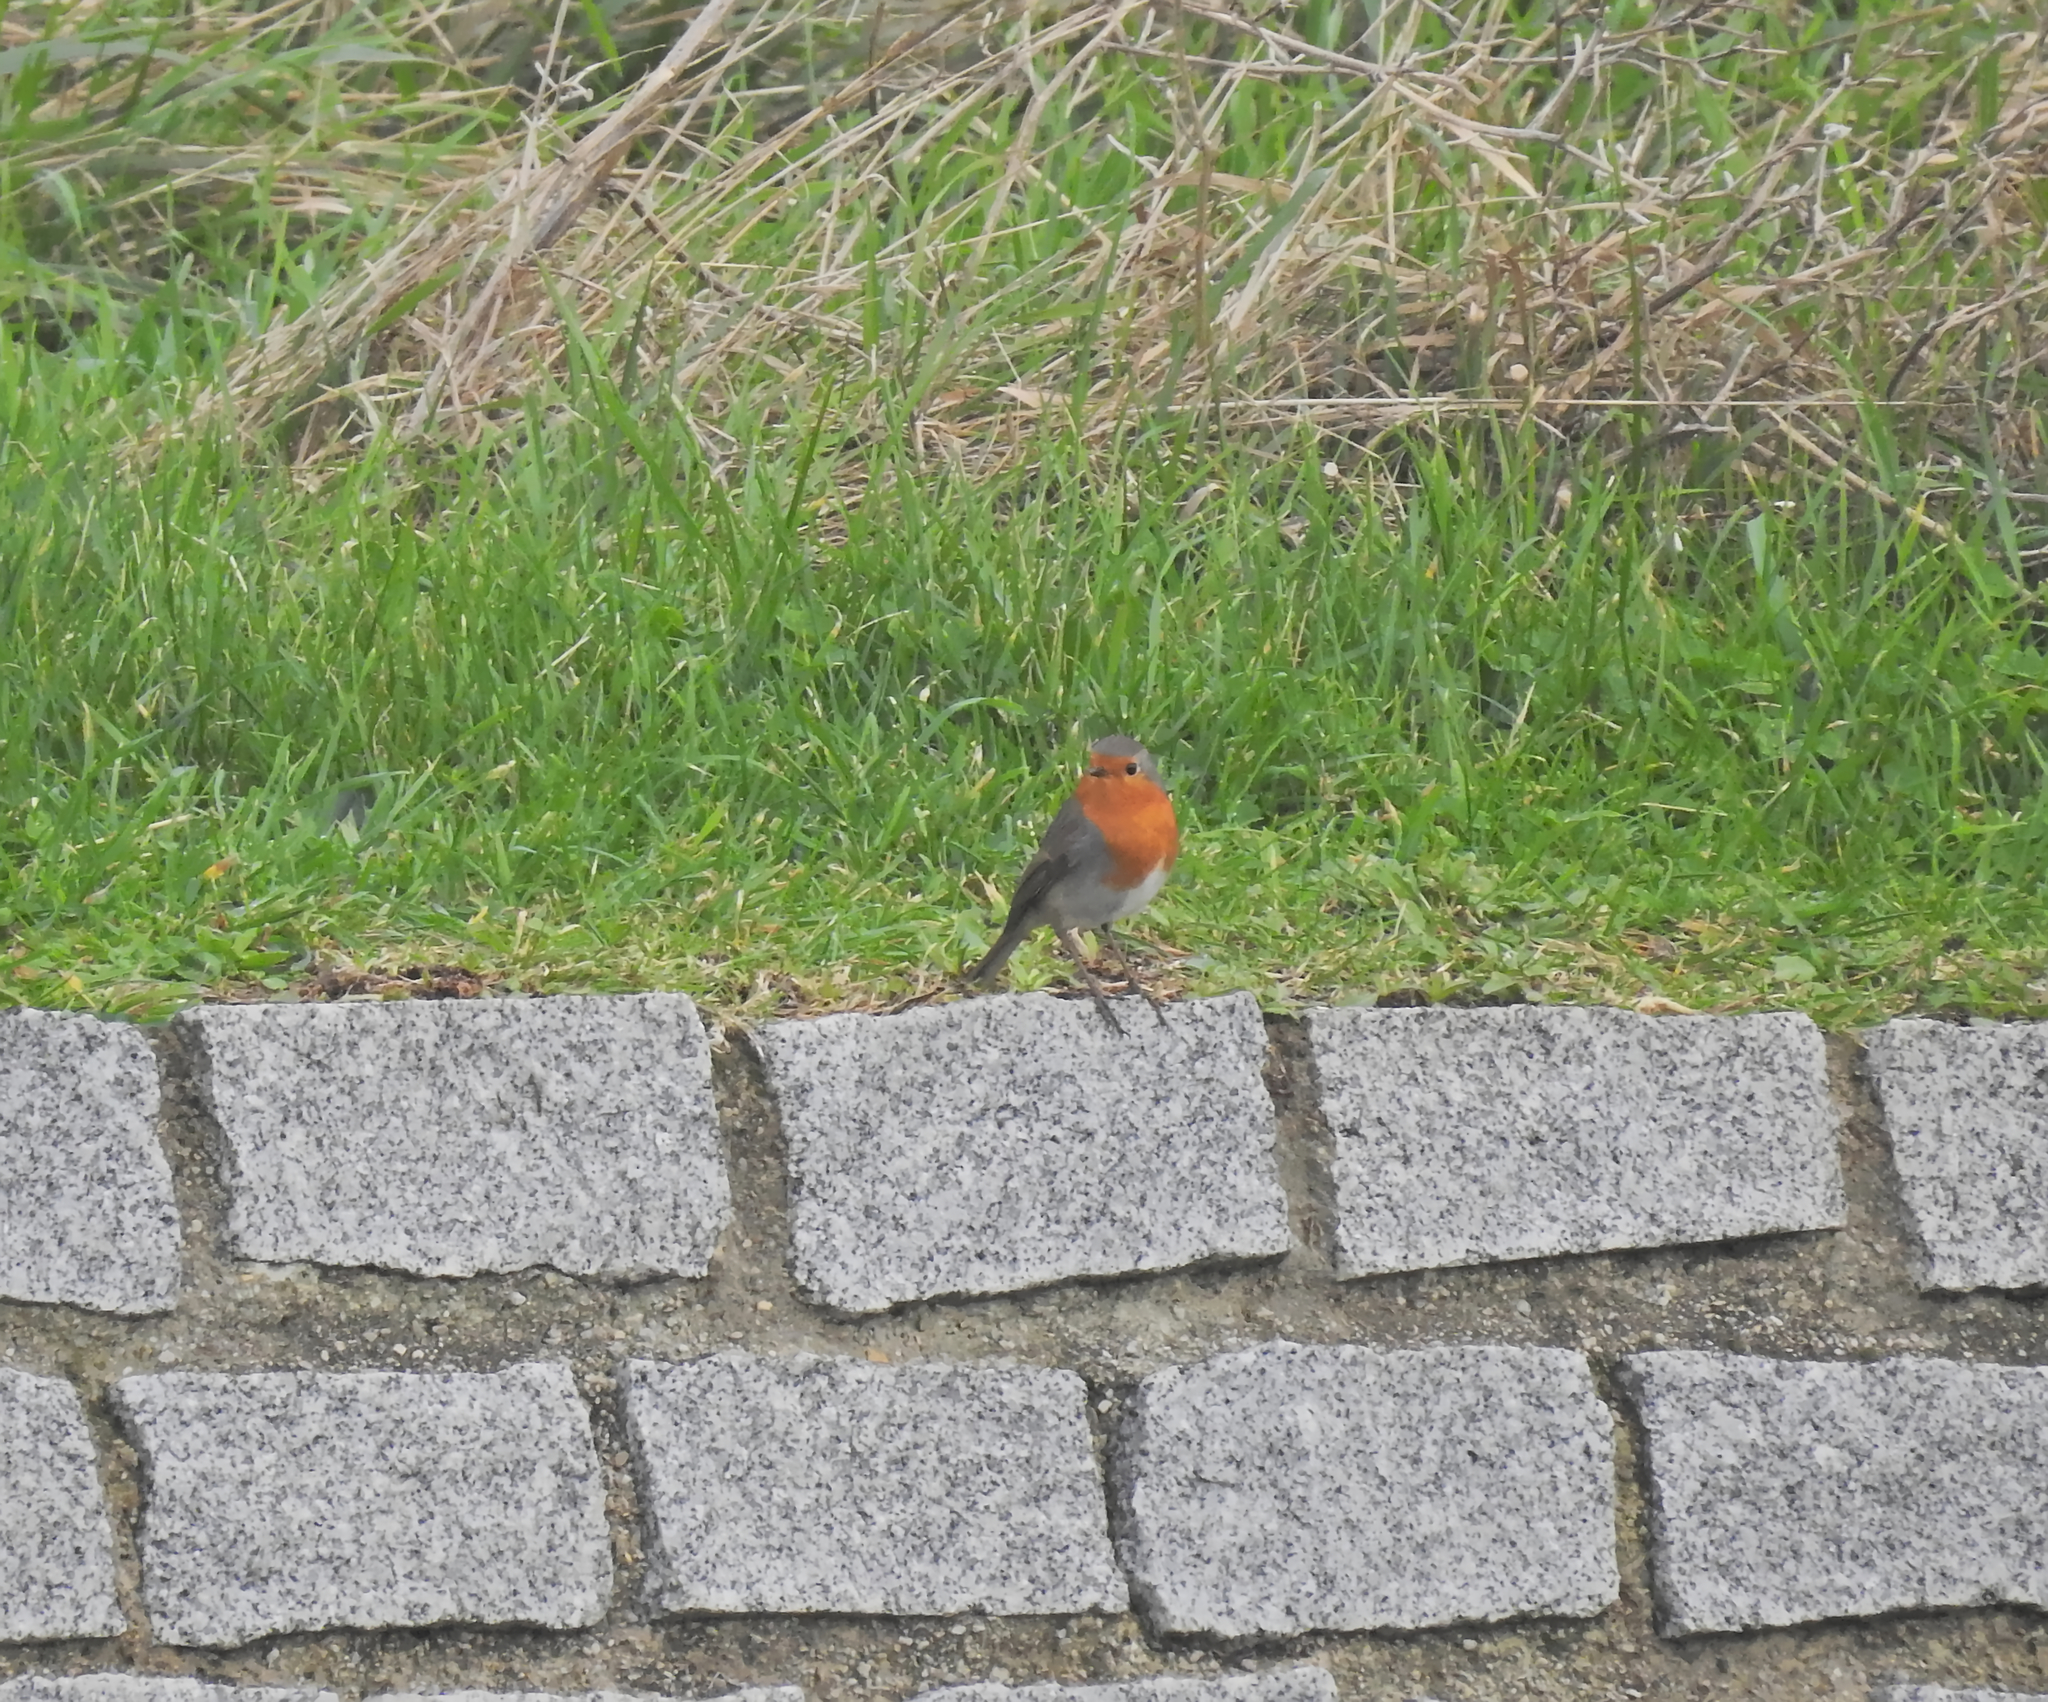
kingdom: Animalia
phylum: Chordata
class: Aves
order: Passeriformes
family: Muscicapidae
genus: Erithacus
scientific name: Erithacus rubecula
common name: European robin
